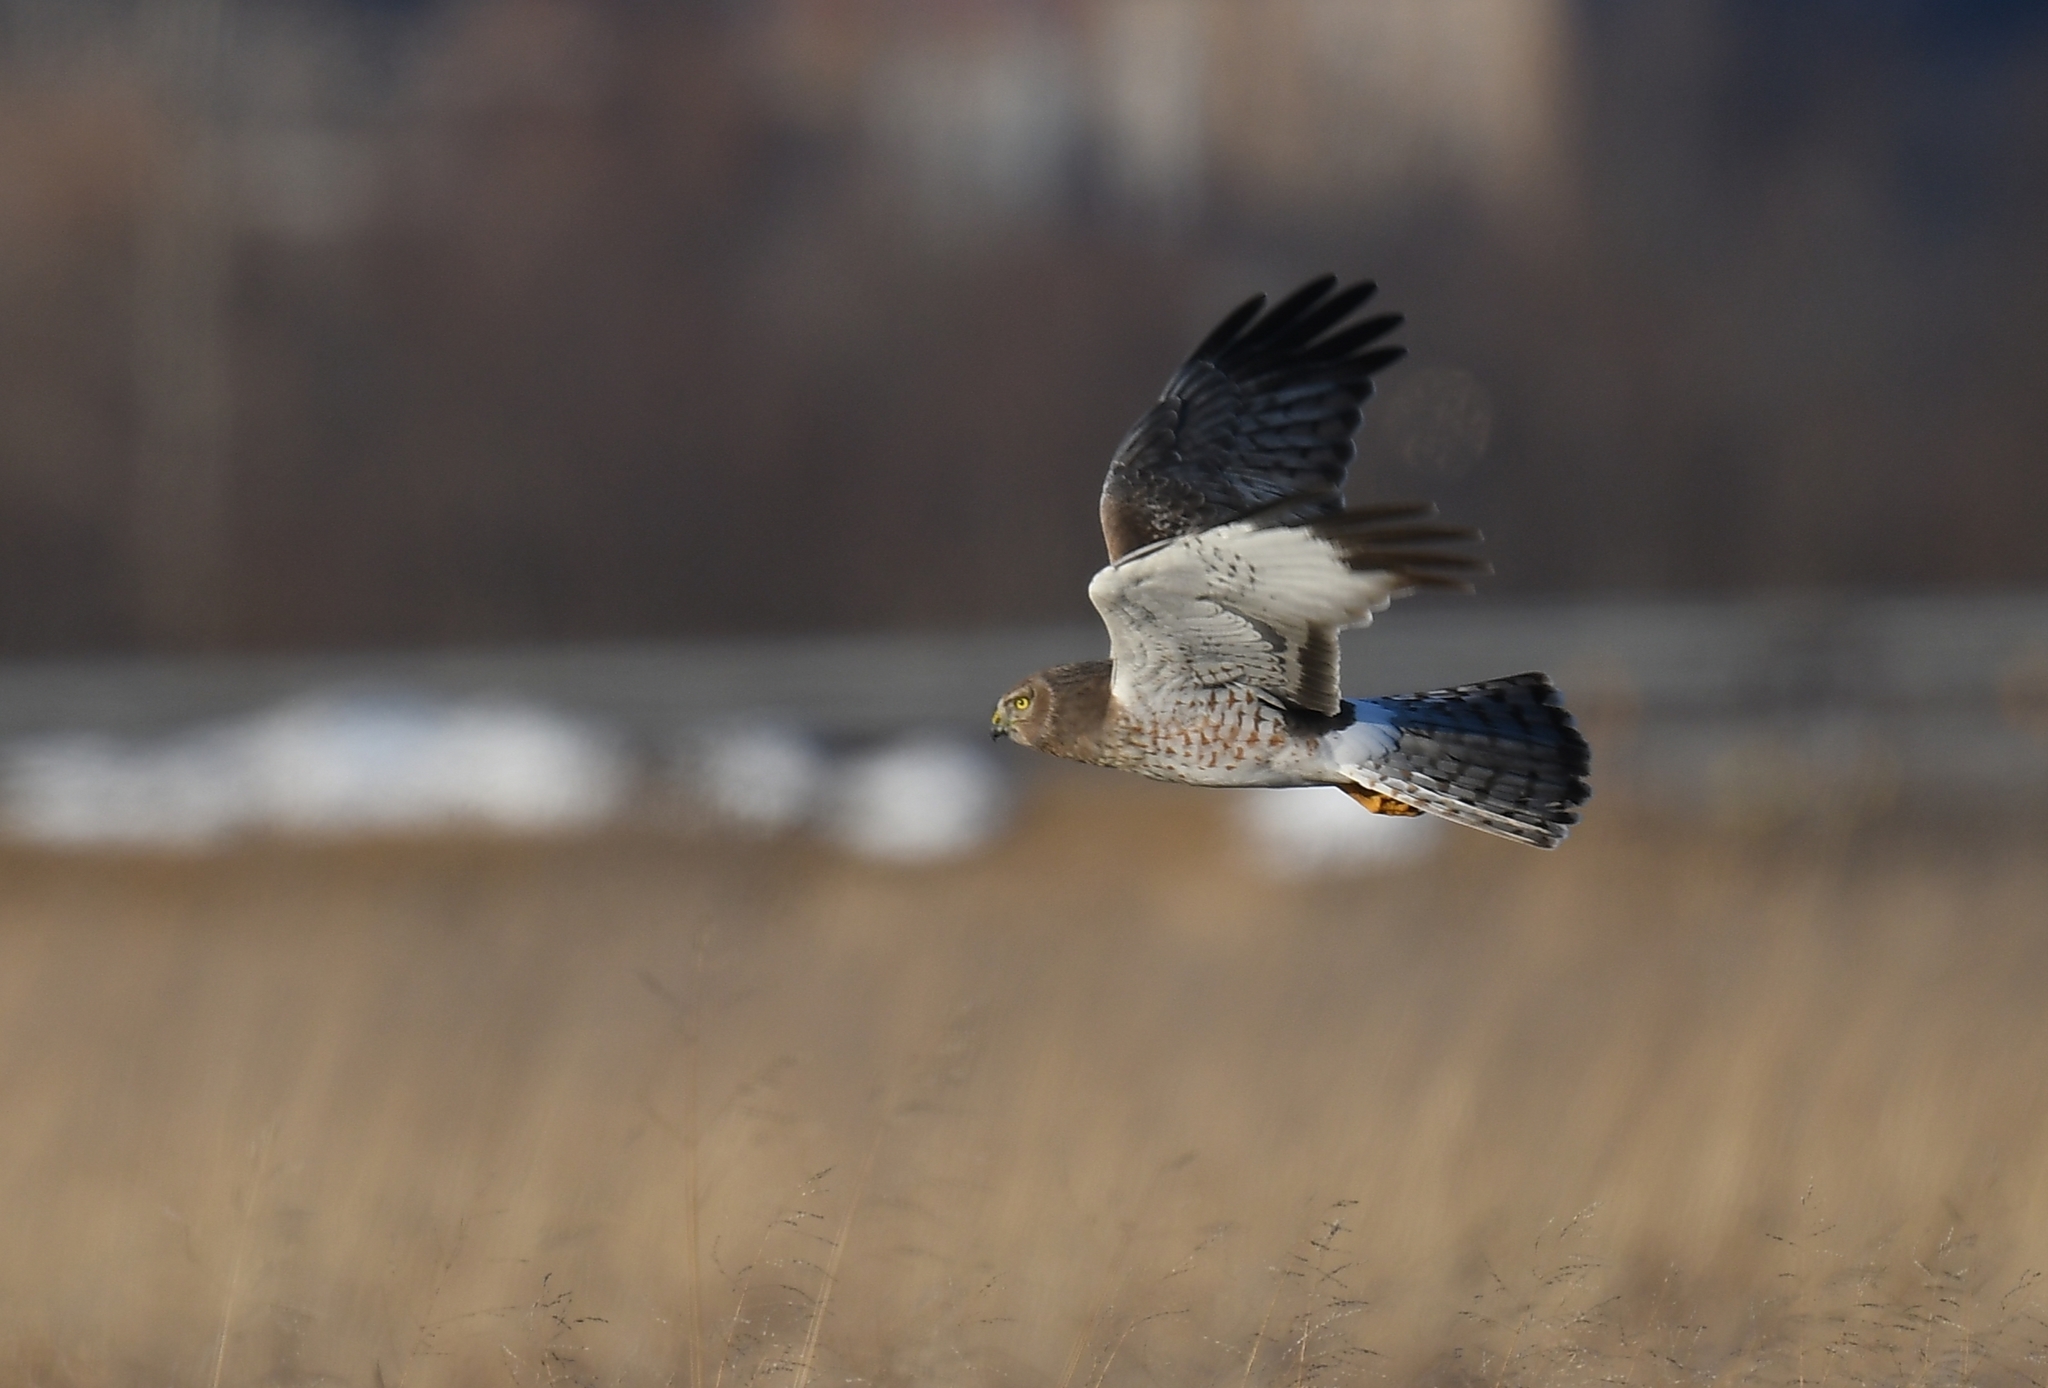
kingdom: Animalia
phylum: Chordata
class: Aves
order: Accipitriformes
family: Accipitridae
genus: Circus
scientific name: Circus cyaneus
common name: Hen harrier
